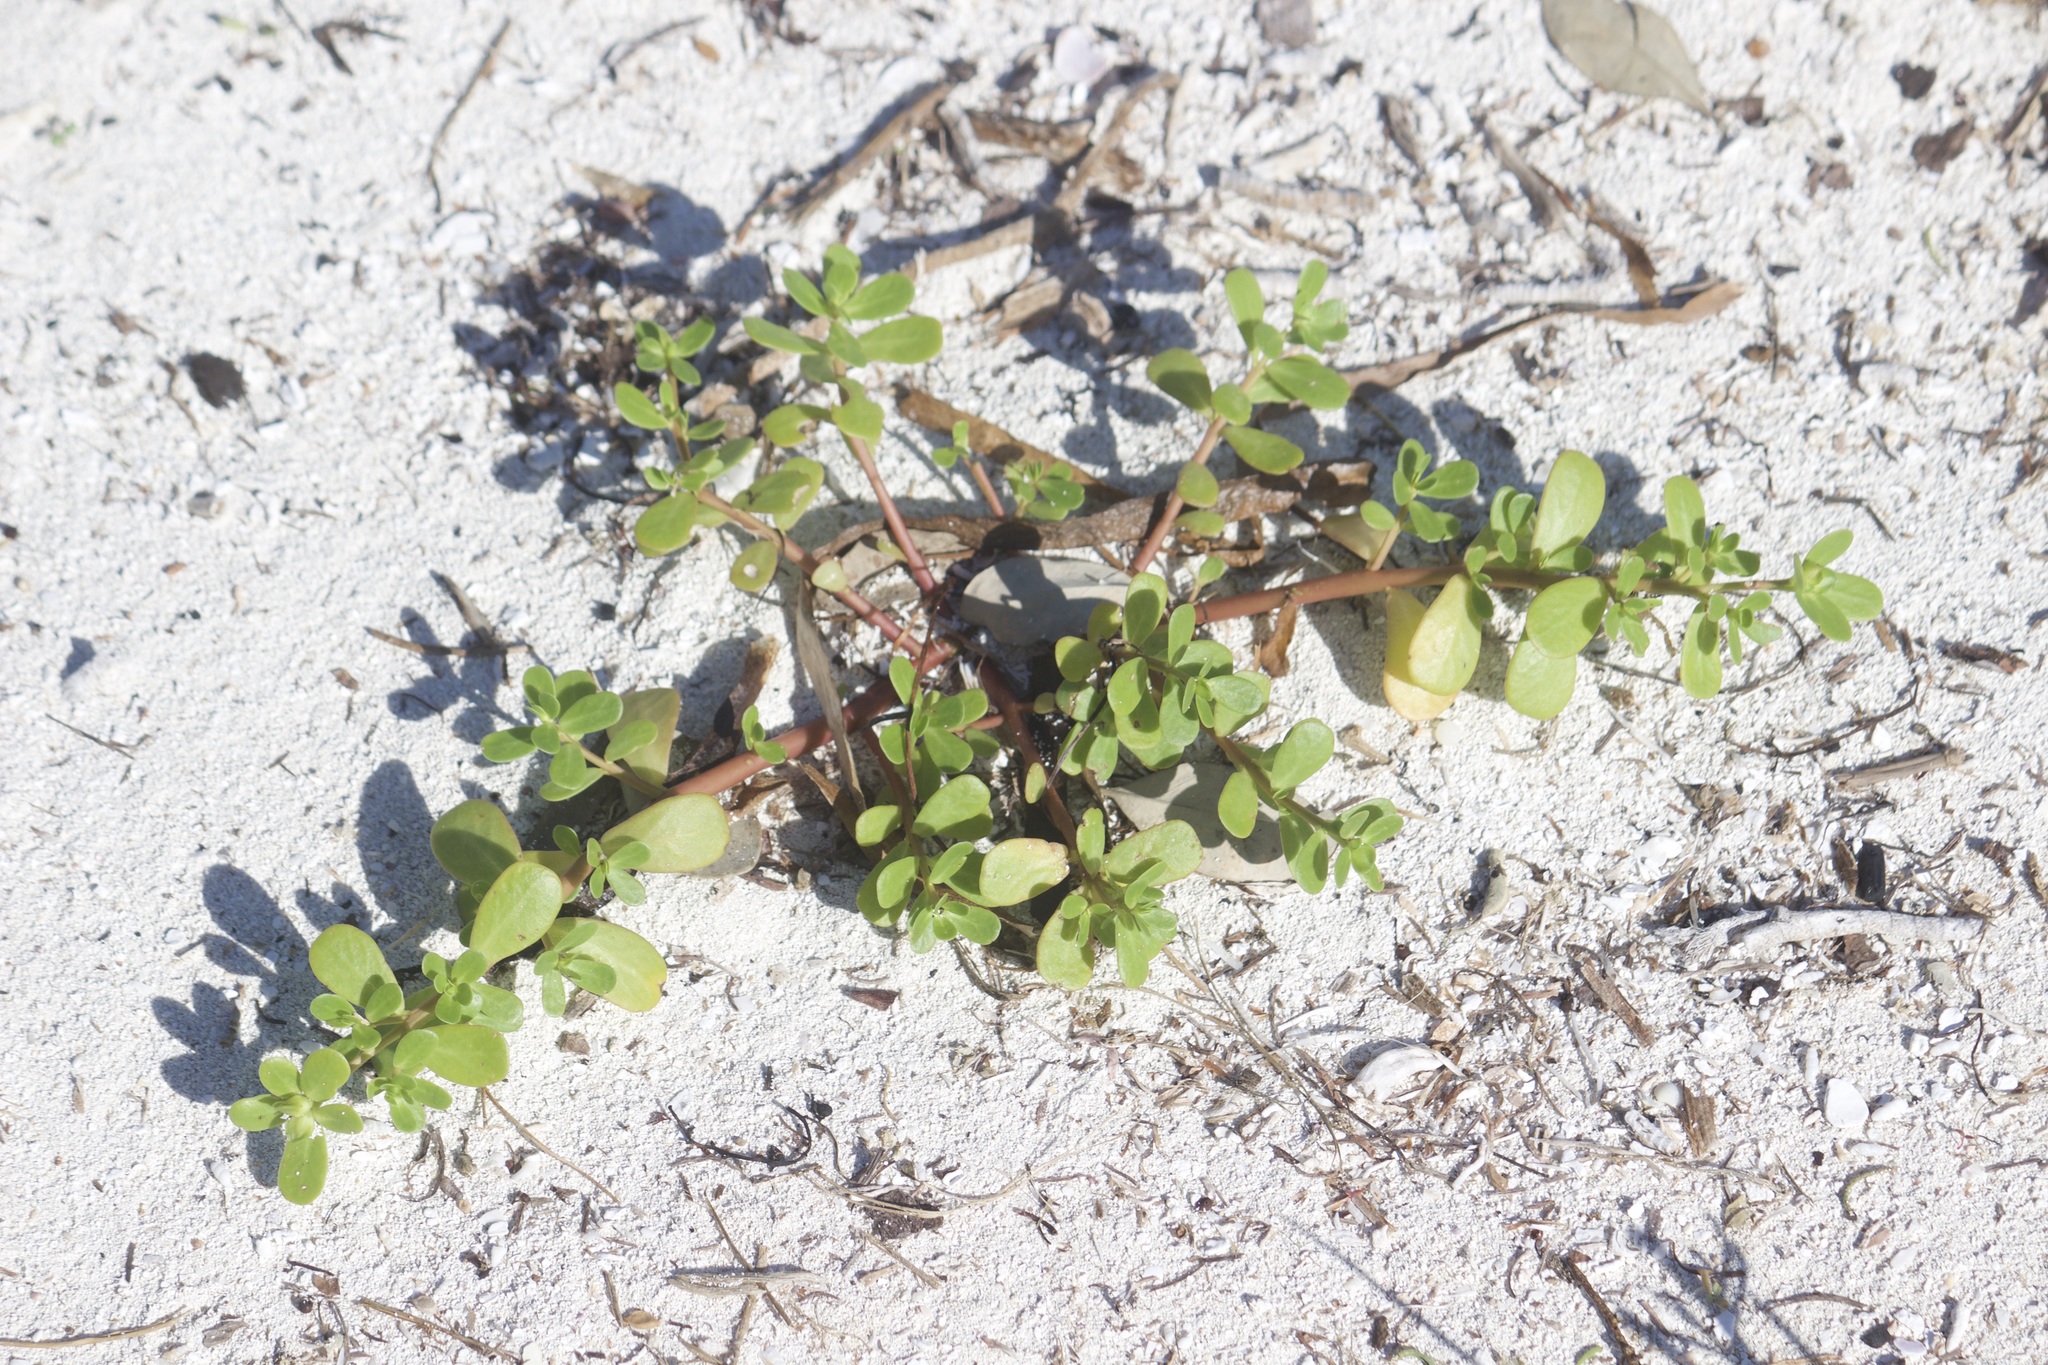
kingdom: Plantae
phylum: Tracheophyta
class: Magnoliopsida
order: Caryophyllales
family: Portulacaceae
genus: Portulaca
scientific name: Portulaca oleracea
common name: Common purslane
